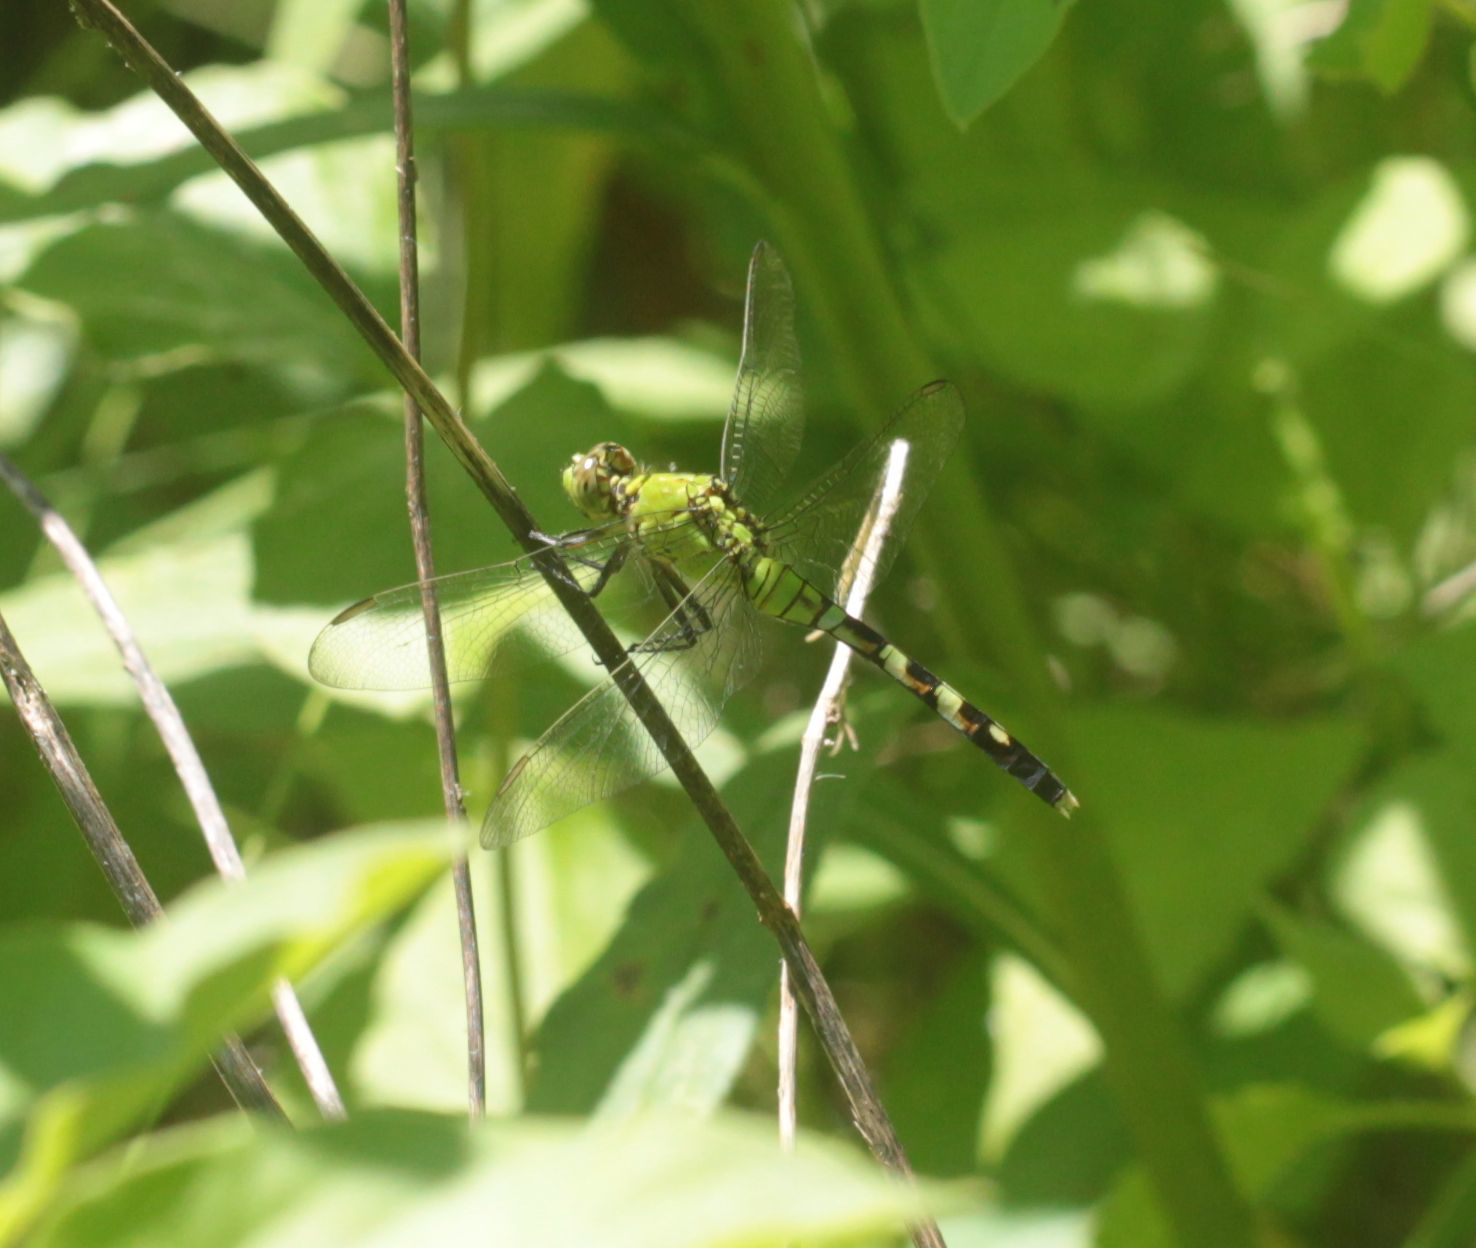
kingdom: Animalia
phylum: Arthropoda
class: Insecta
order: Odonata
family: Libellulidae
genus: Erythemis
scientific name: Erythemis simplicicollis
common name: Eastern pondhawk
